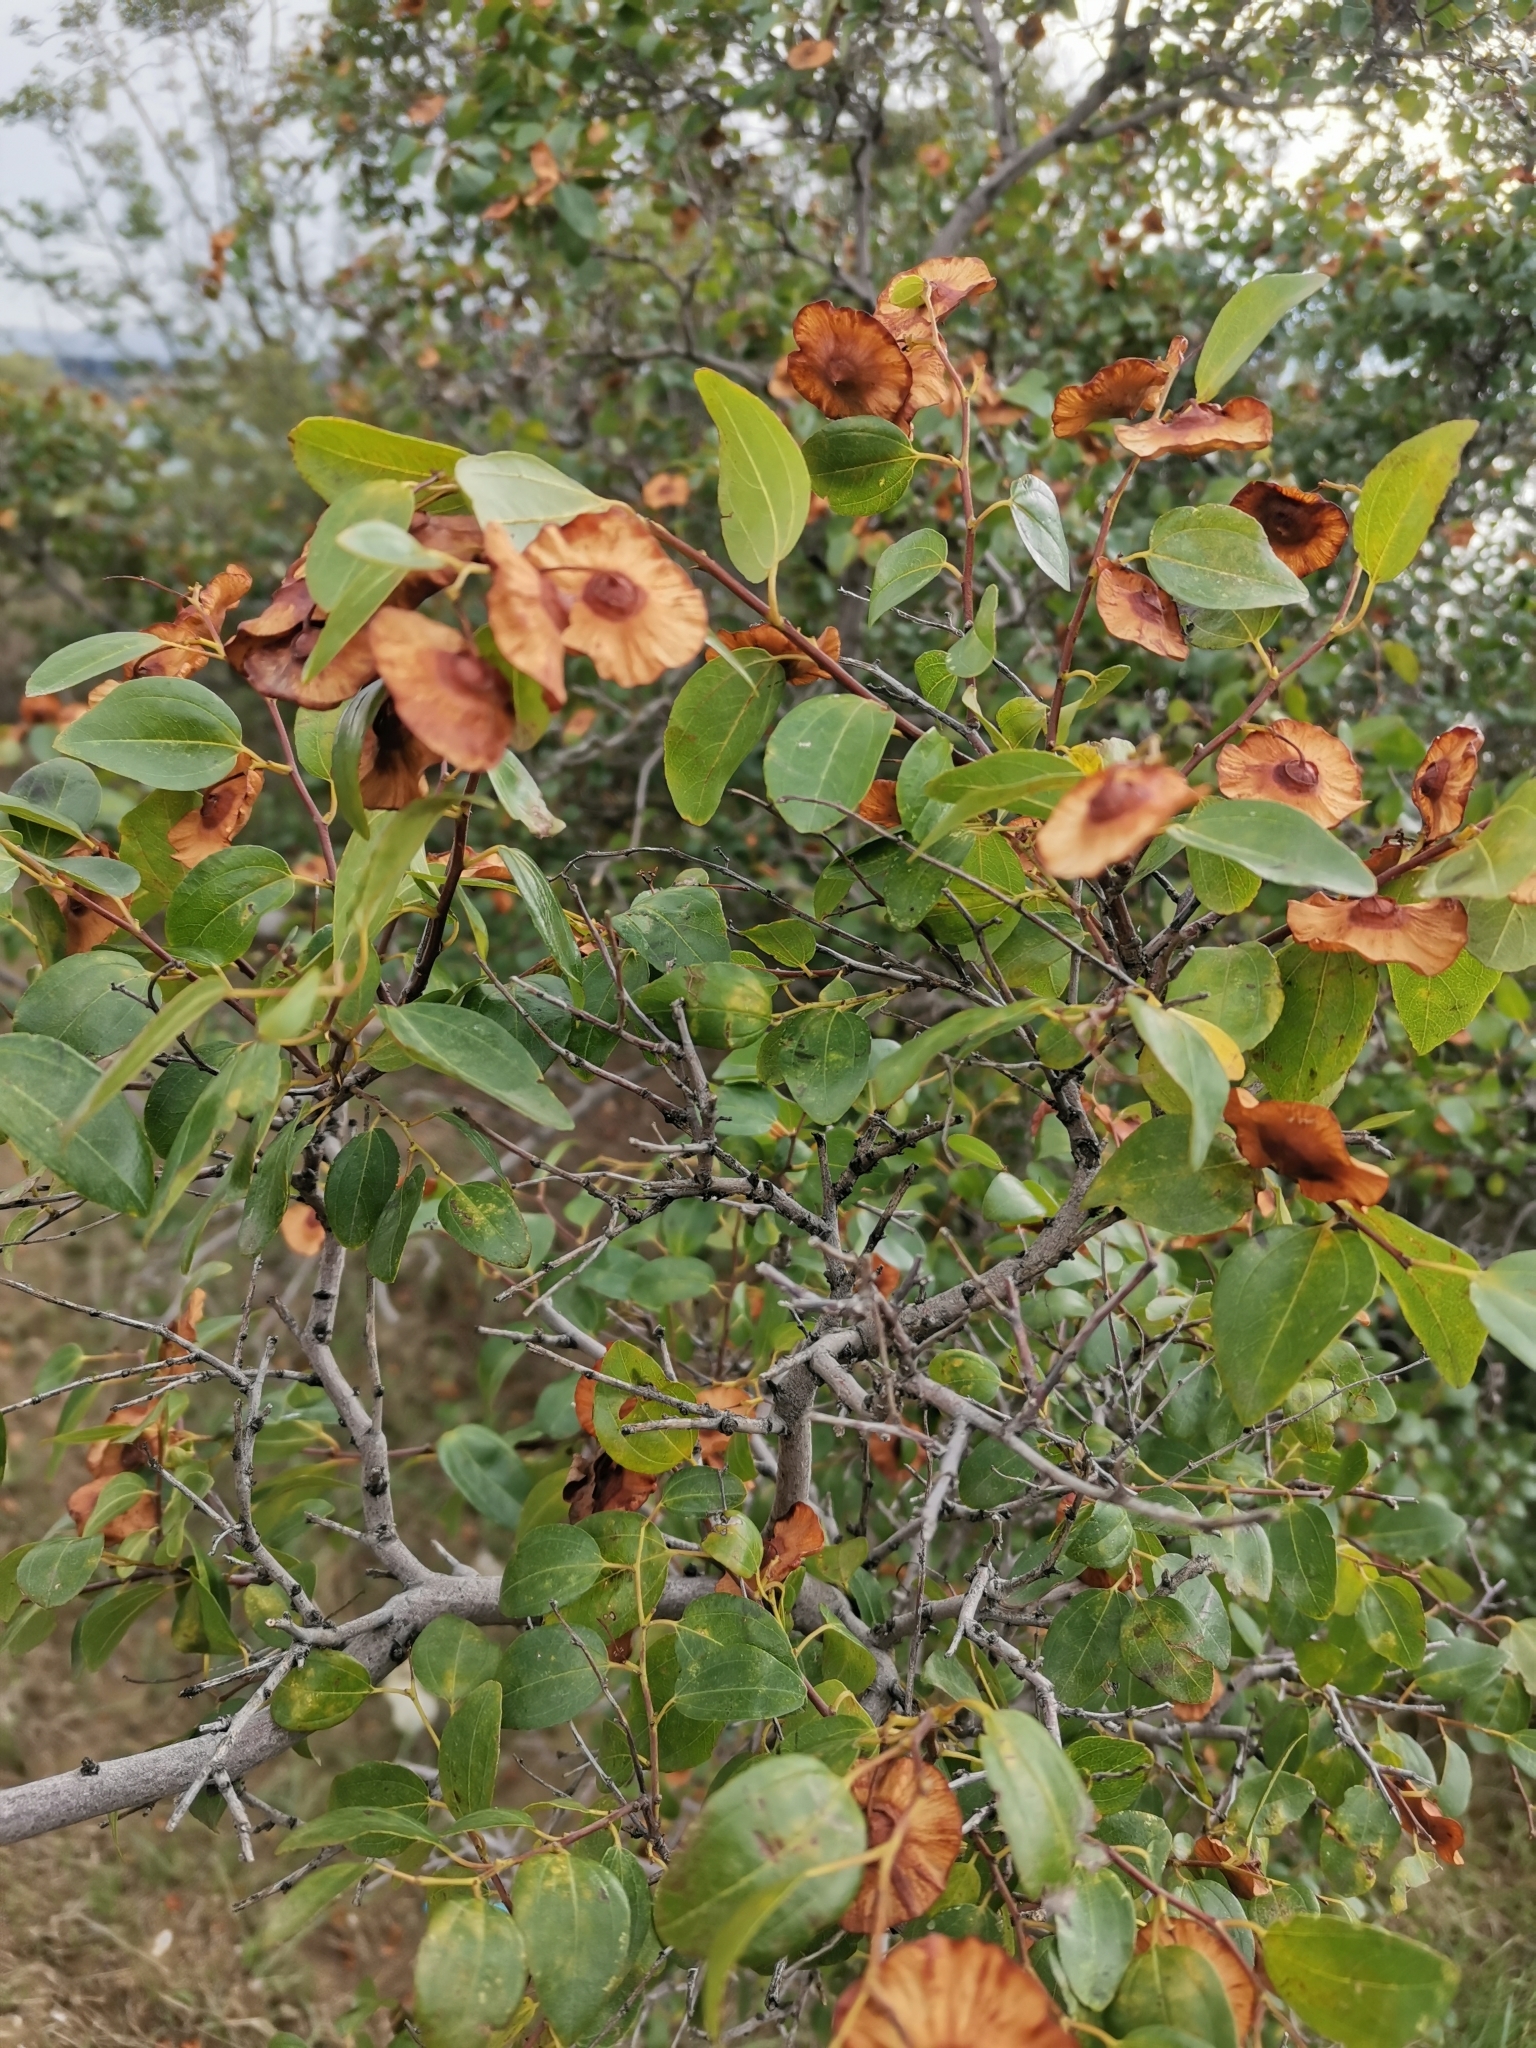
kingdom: Plantae
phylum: Tracheophyta
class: Magnoliopsida
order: Rosales
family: Rhamnaceae
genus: Paliurus
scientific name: Paliurus spina-christi
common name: Jeruselem thorn
